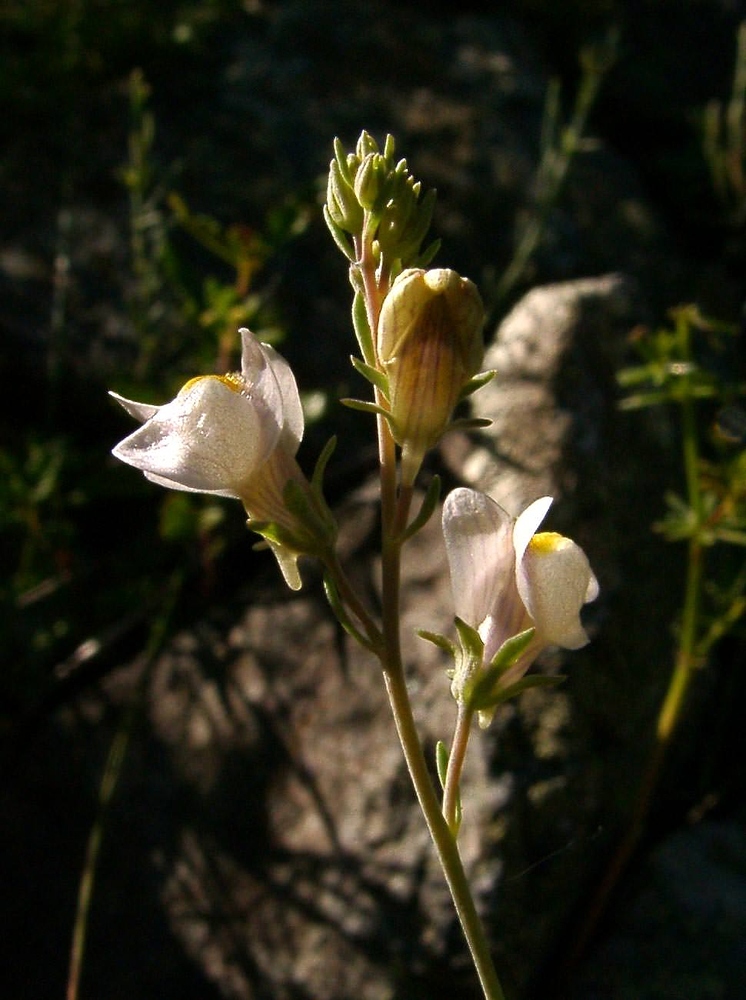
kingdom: Plantae
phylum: Tracheophyta
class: Magnoliopsida
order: Lamiales
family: Plantaginaceae
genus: Linaria
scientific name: Linaria repens
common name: Pale toadflax
